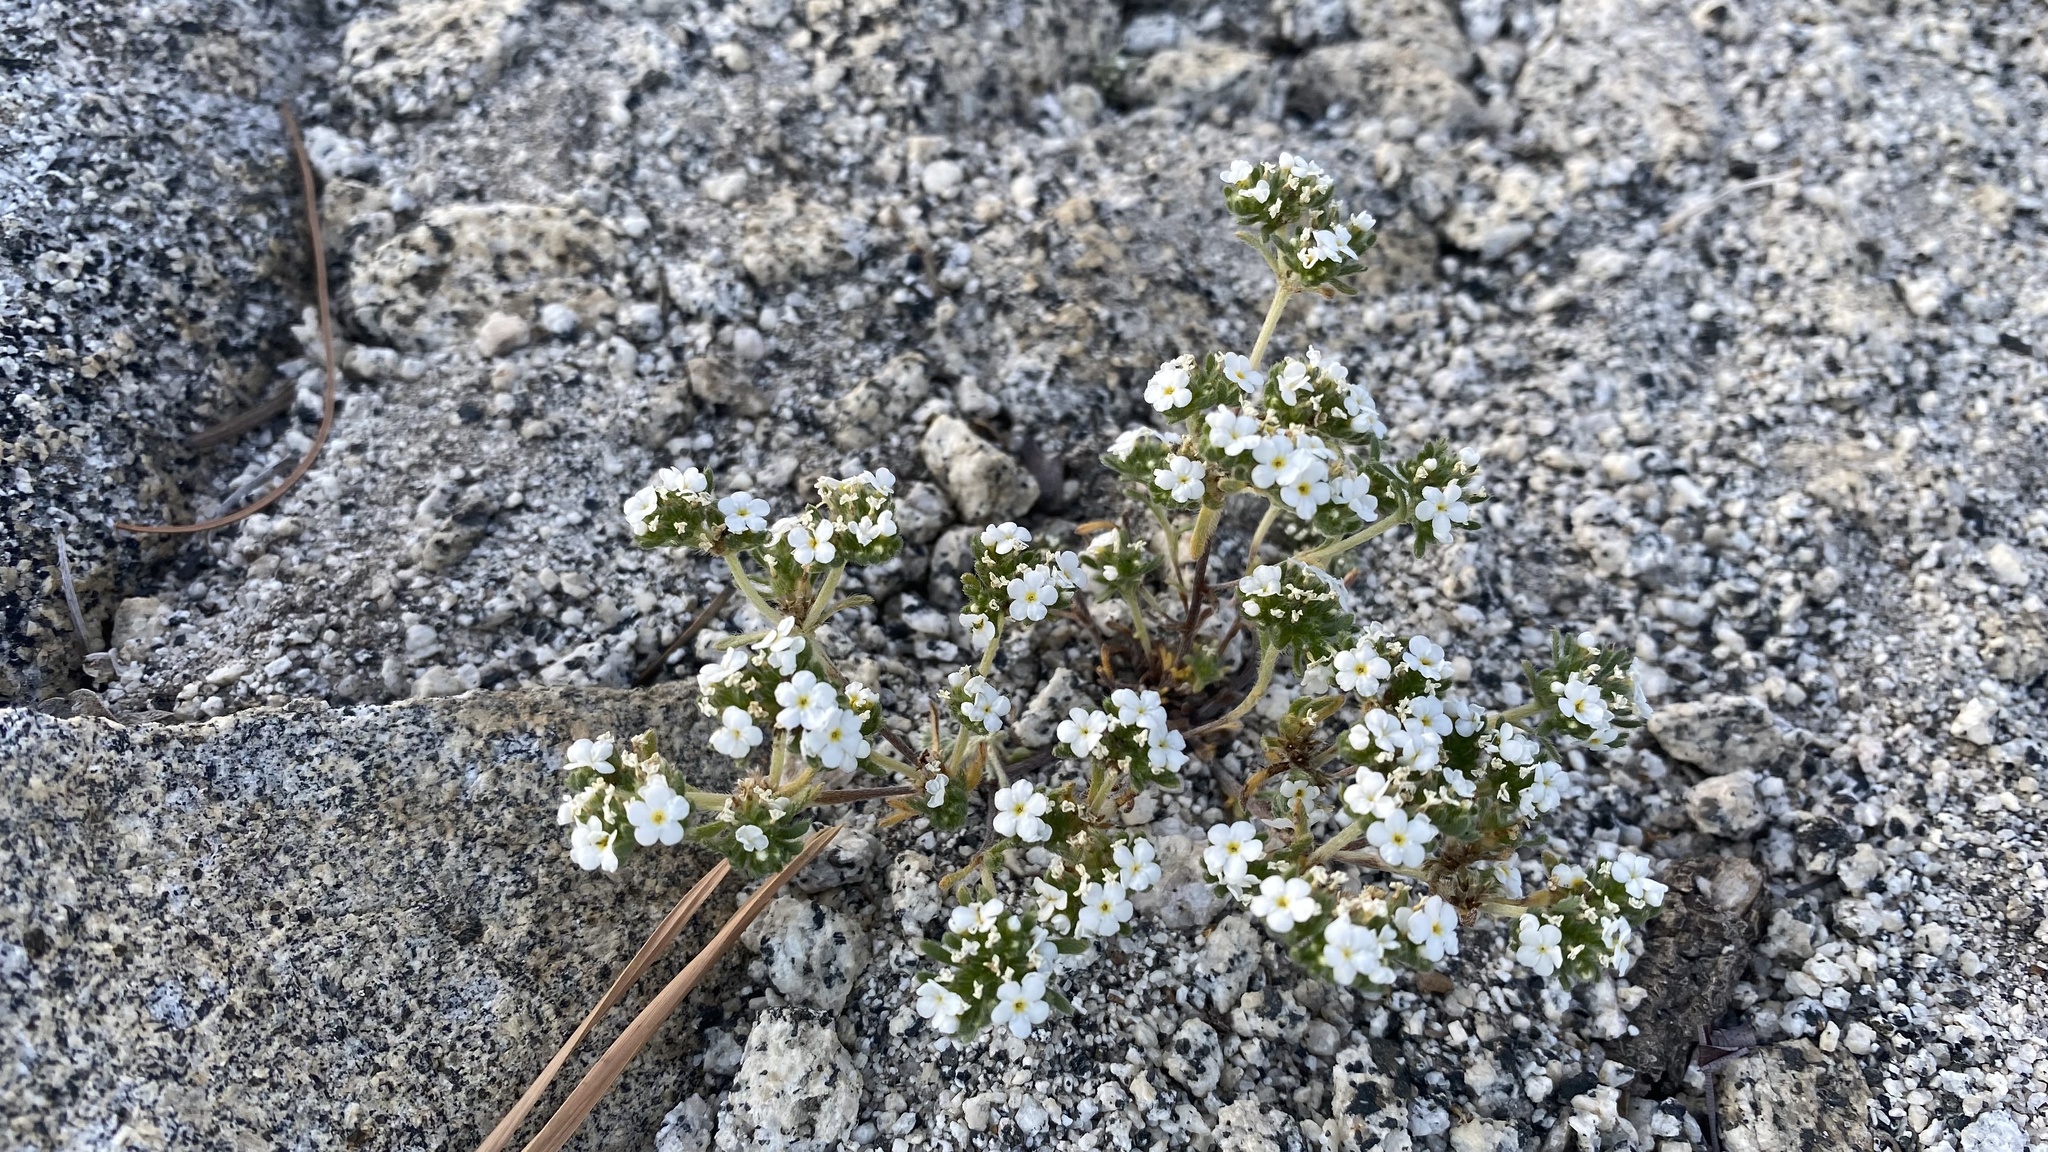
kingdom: Plantae
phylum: Tracheophyta
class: Magnoliopsida
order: Boraginales
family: Boraginaceae
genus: Eremocarya
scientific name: Eremocarya lepida
